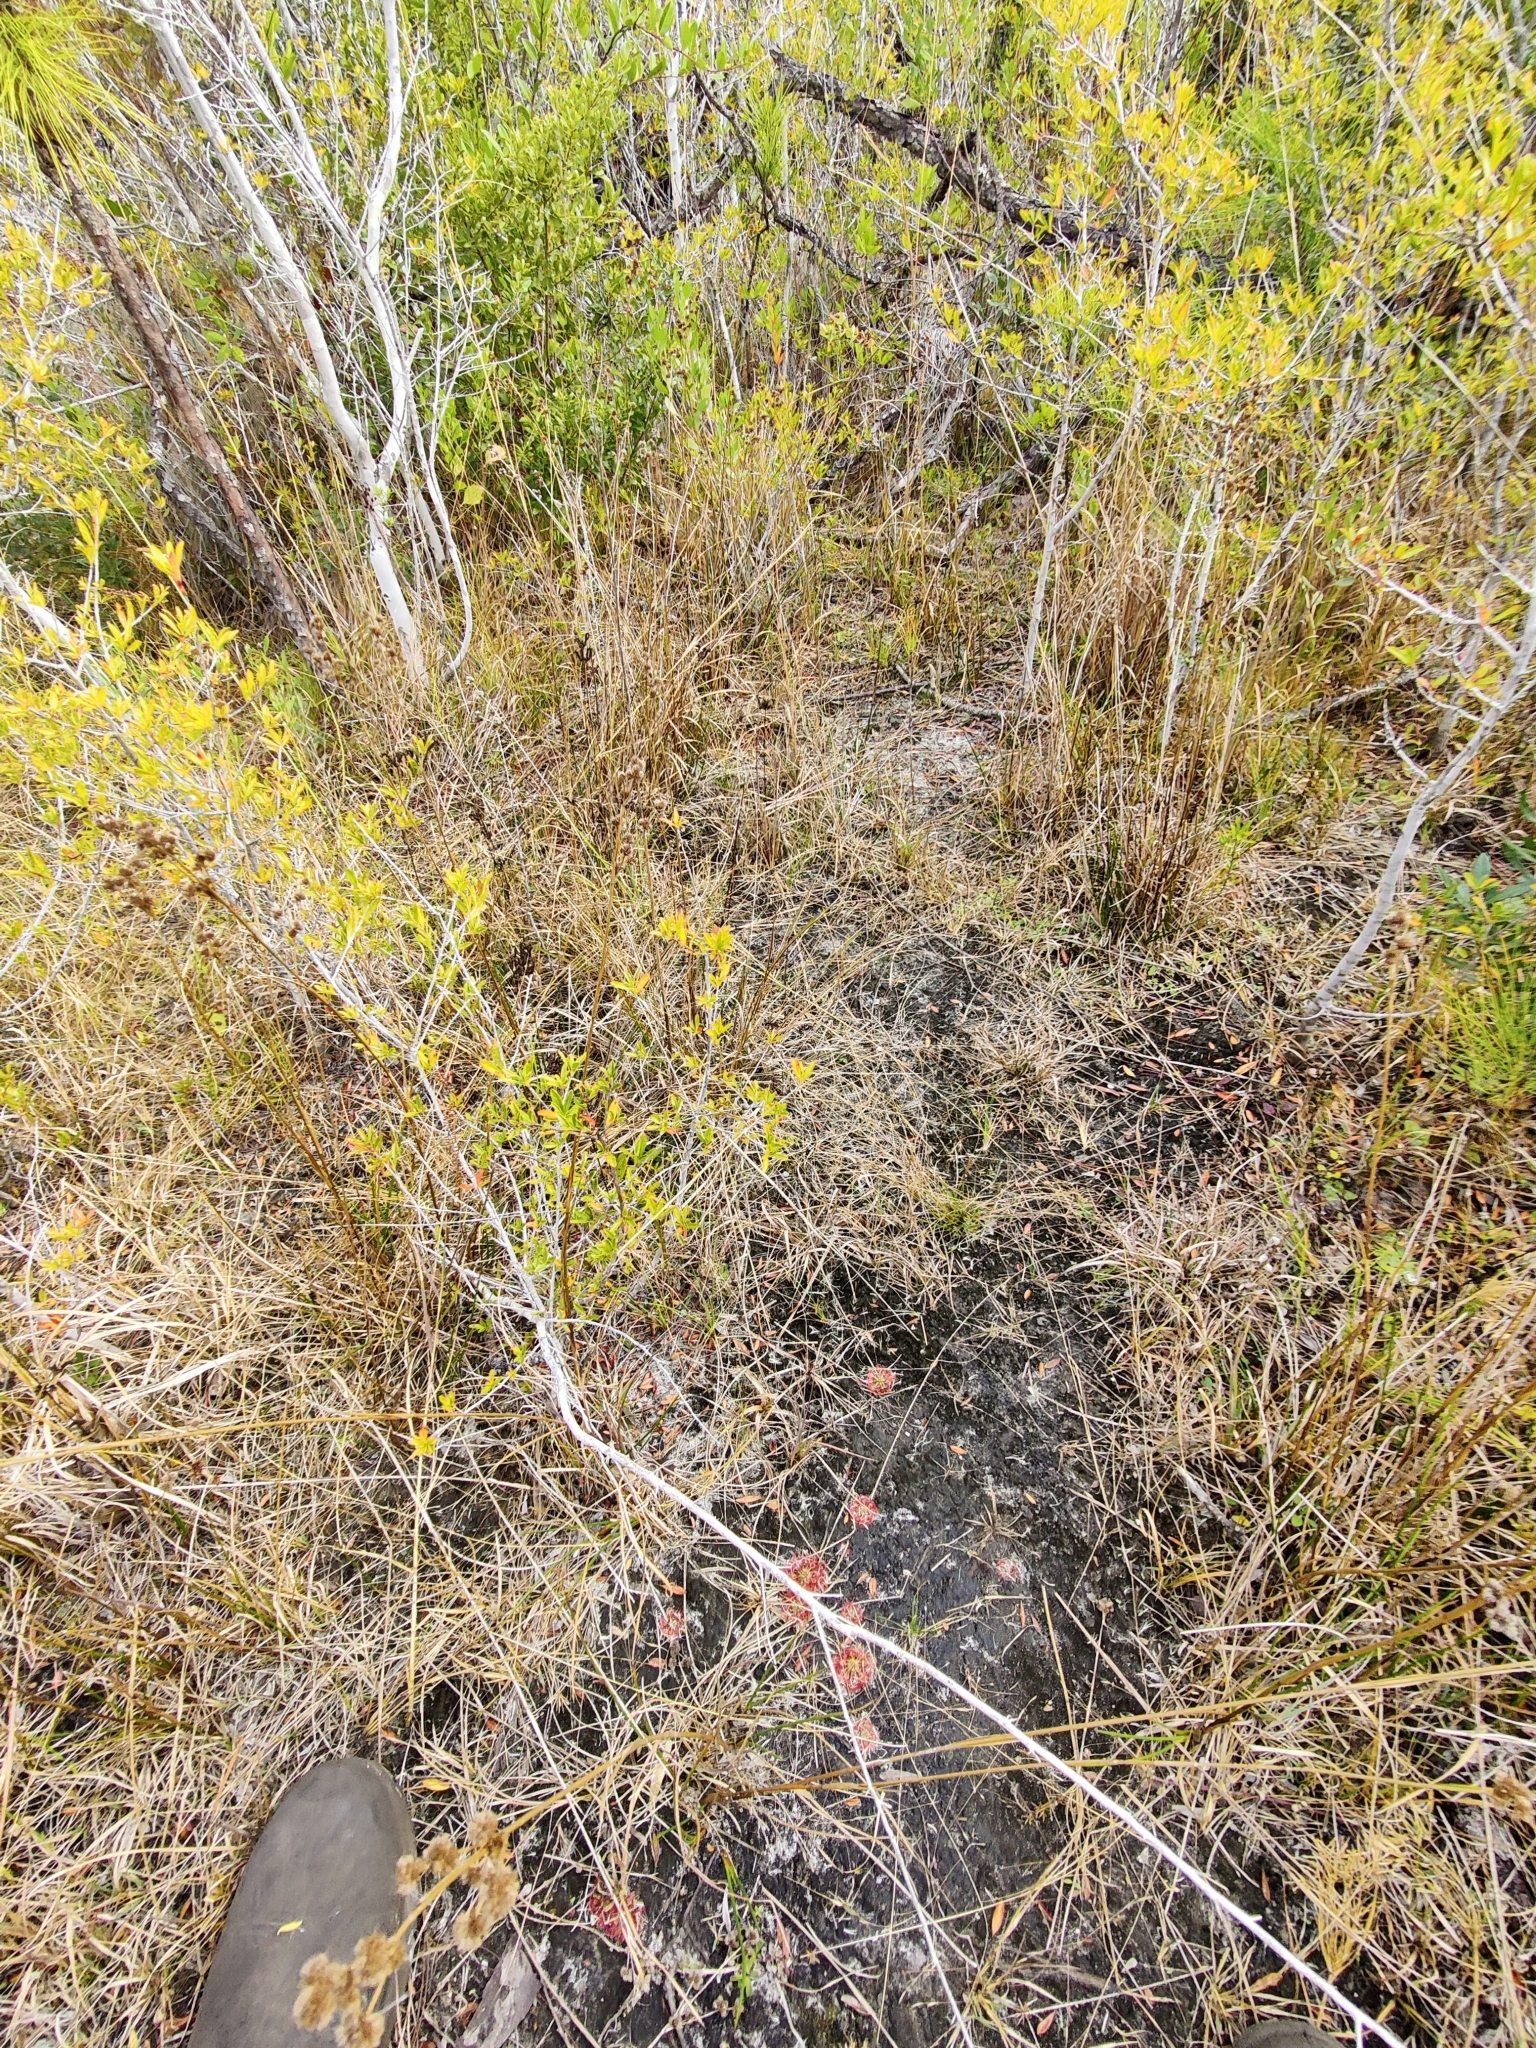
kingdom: Plantae
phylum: Tracheophyta
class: Magnoliopsida
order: Caryophyllales
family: Droseraceae
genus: Drosera
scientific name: Drosera capillaris
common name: Pink sundew
